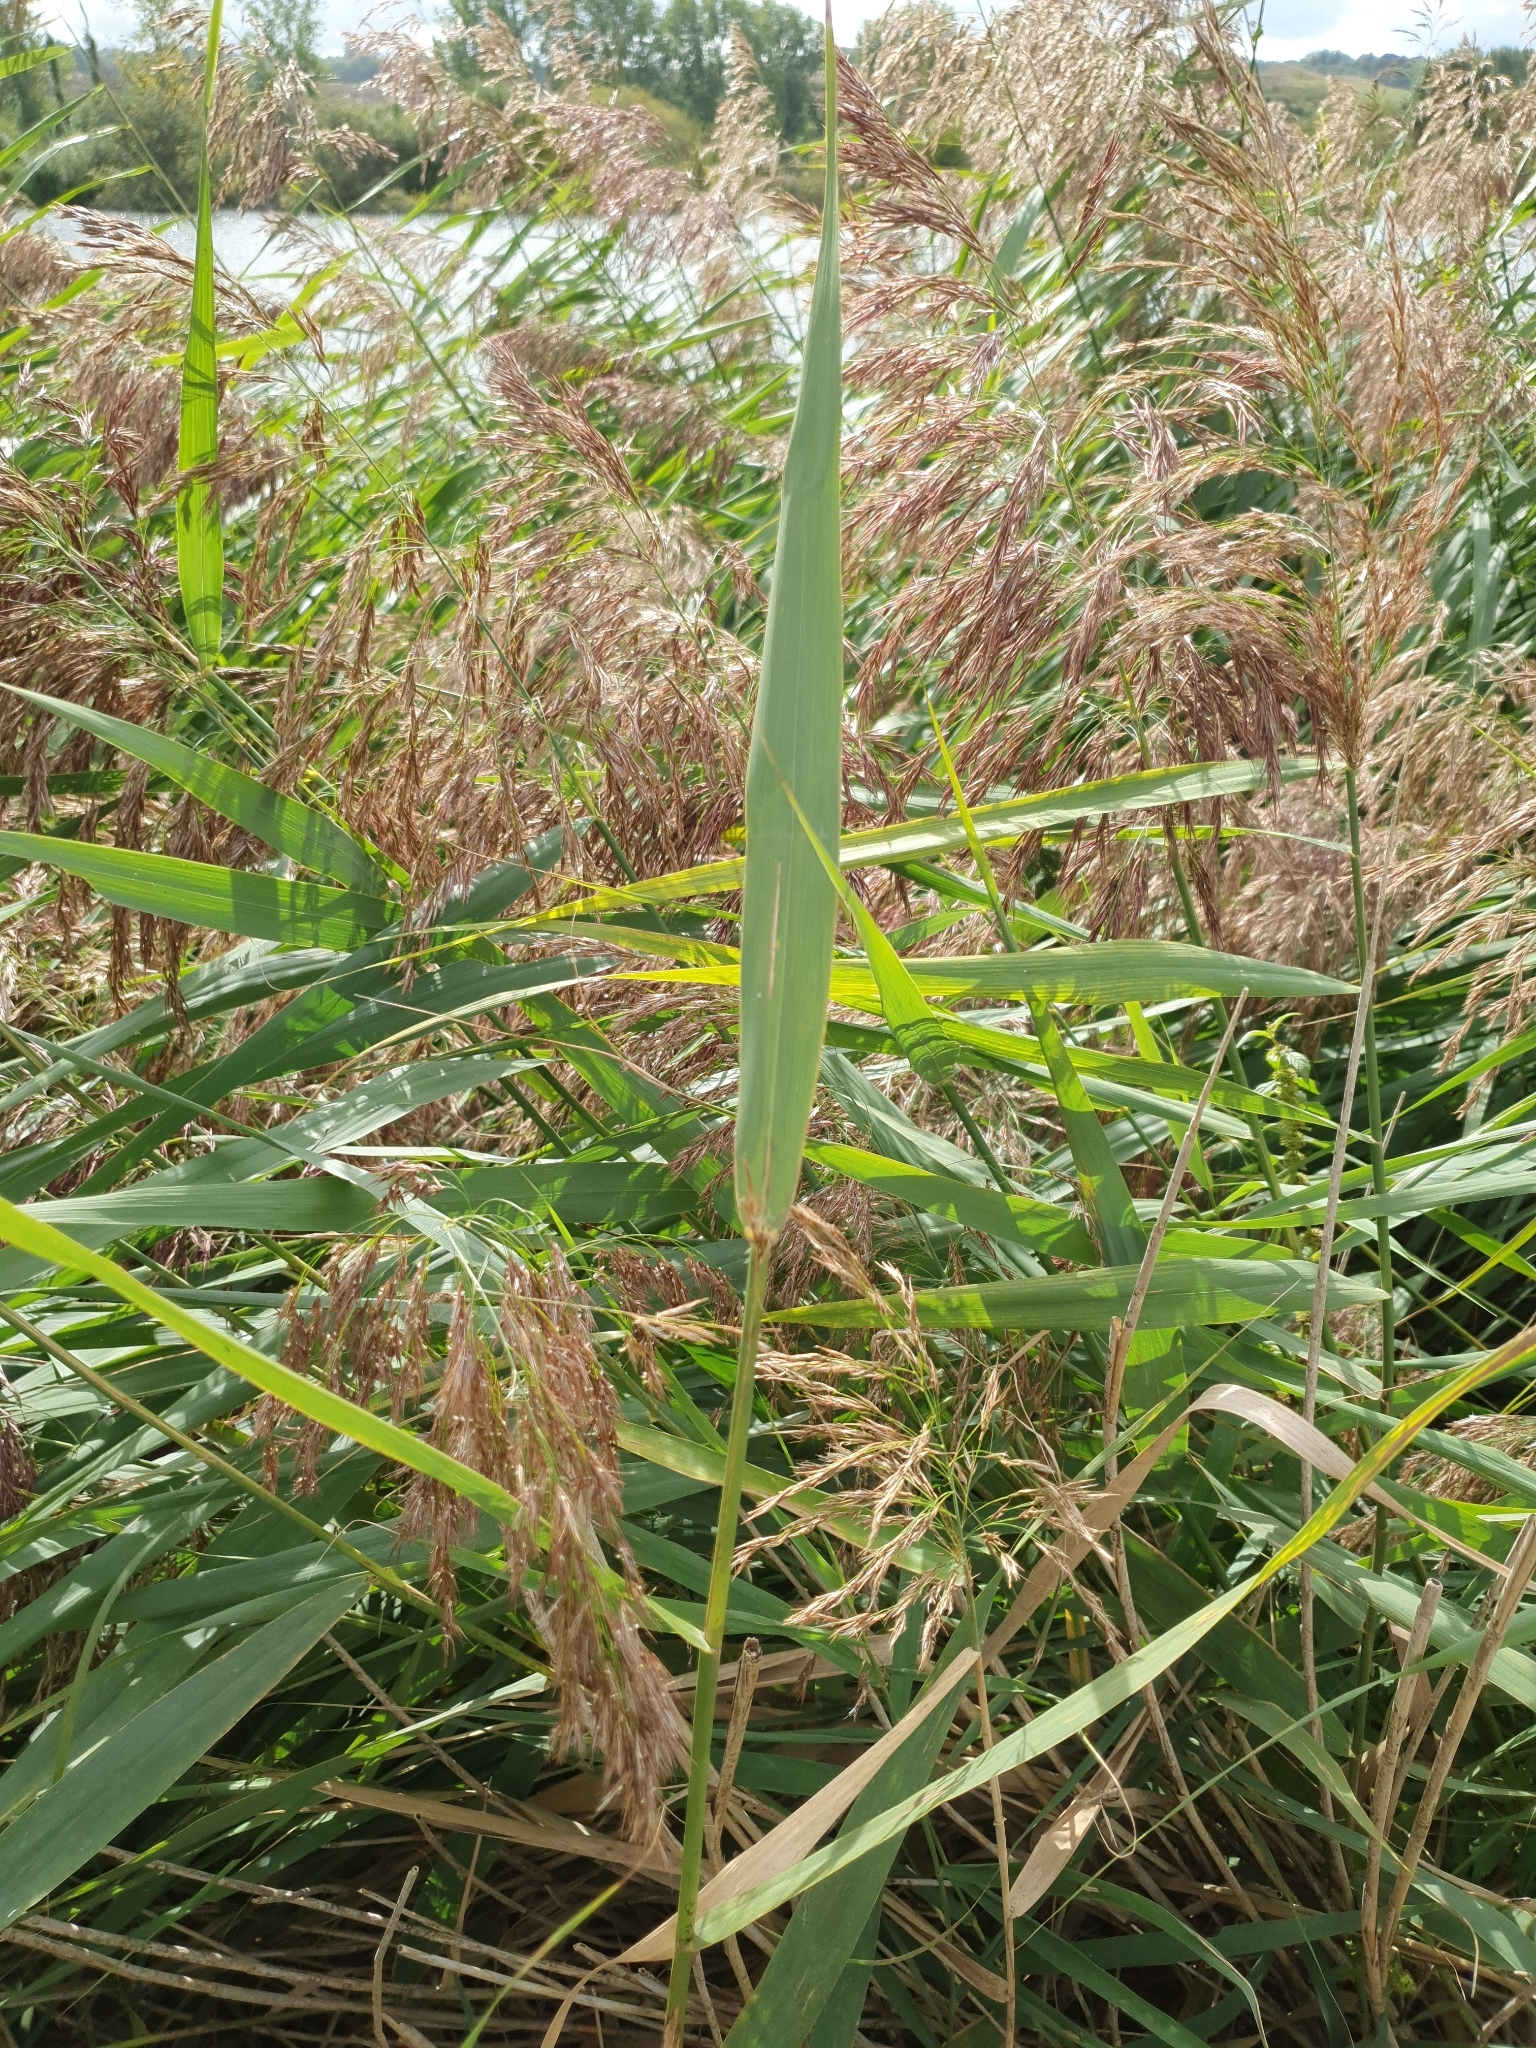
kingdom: Plantae
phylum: Tracheophyta
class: Liliopsida
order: Poales
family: Poaceae
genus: Phragmites
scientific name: Phragmites australis
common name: Common reed
